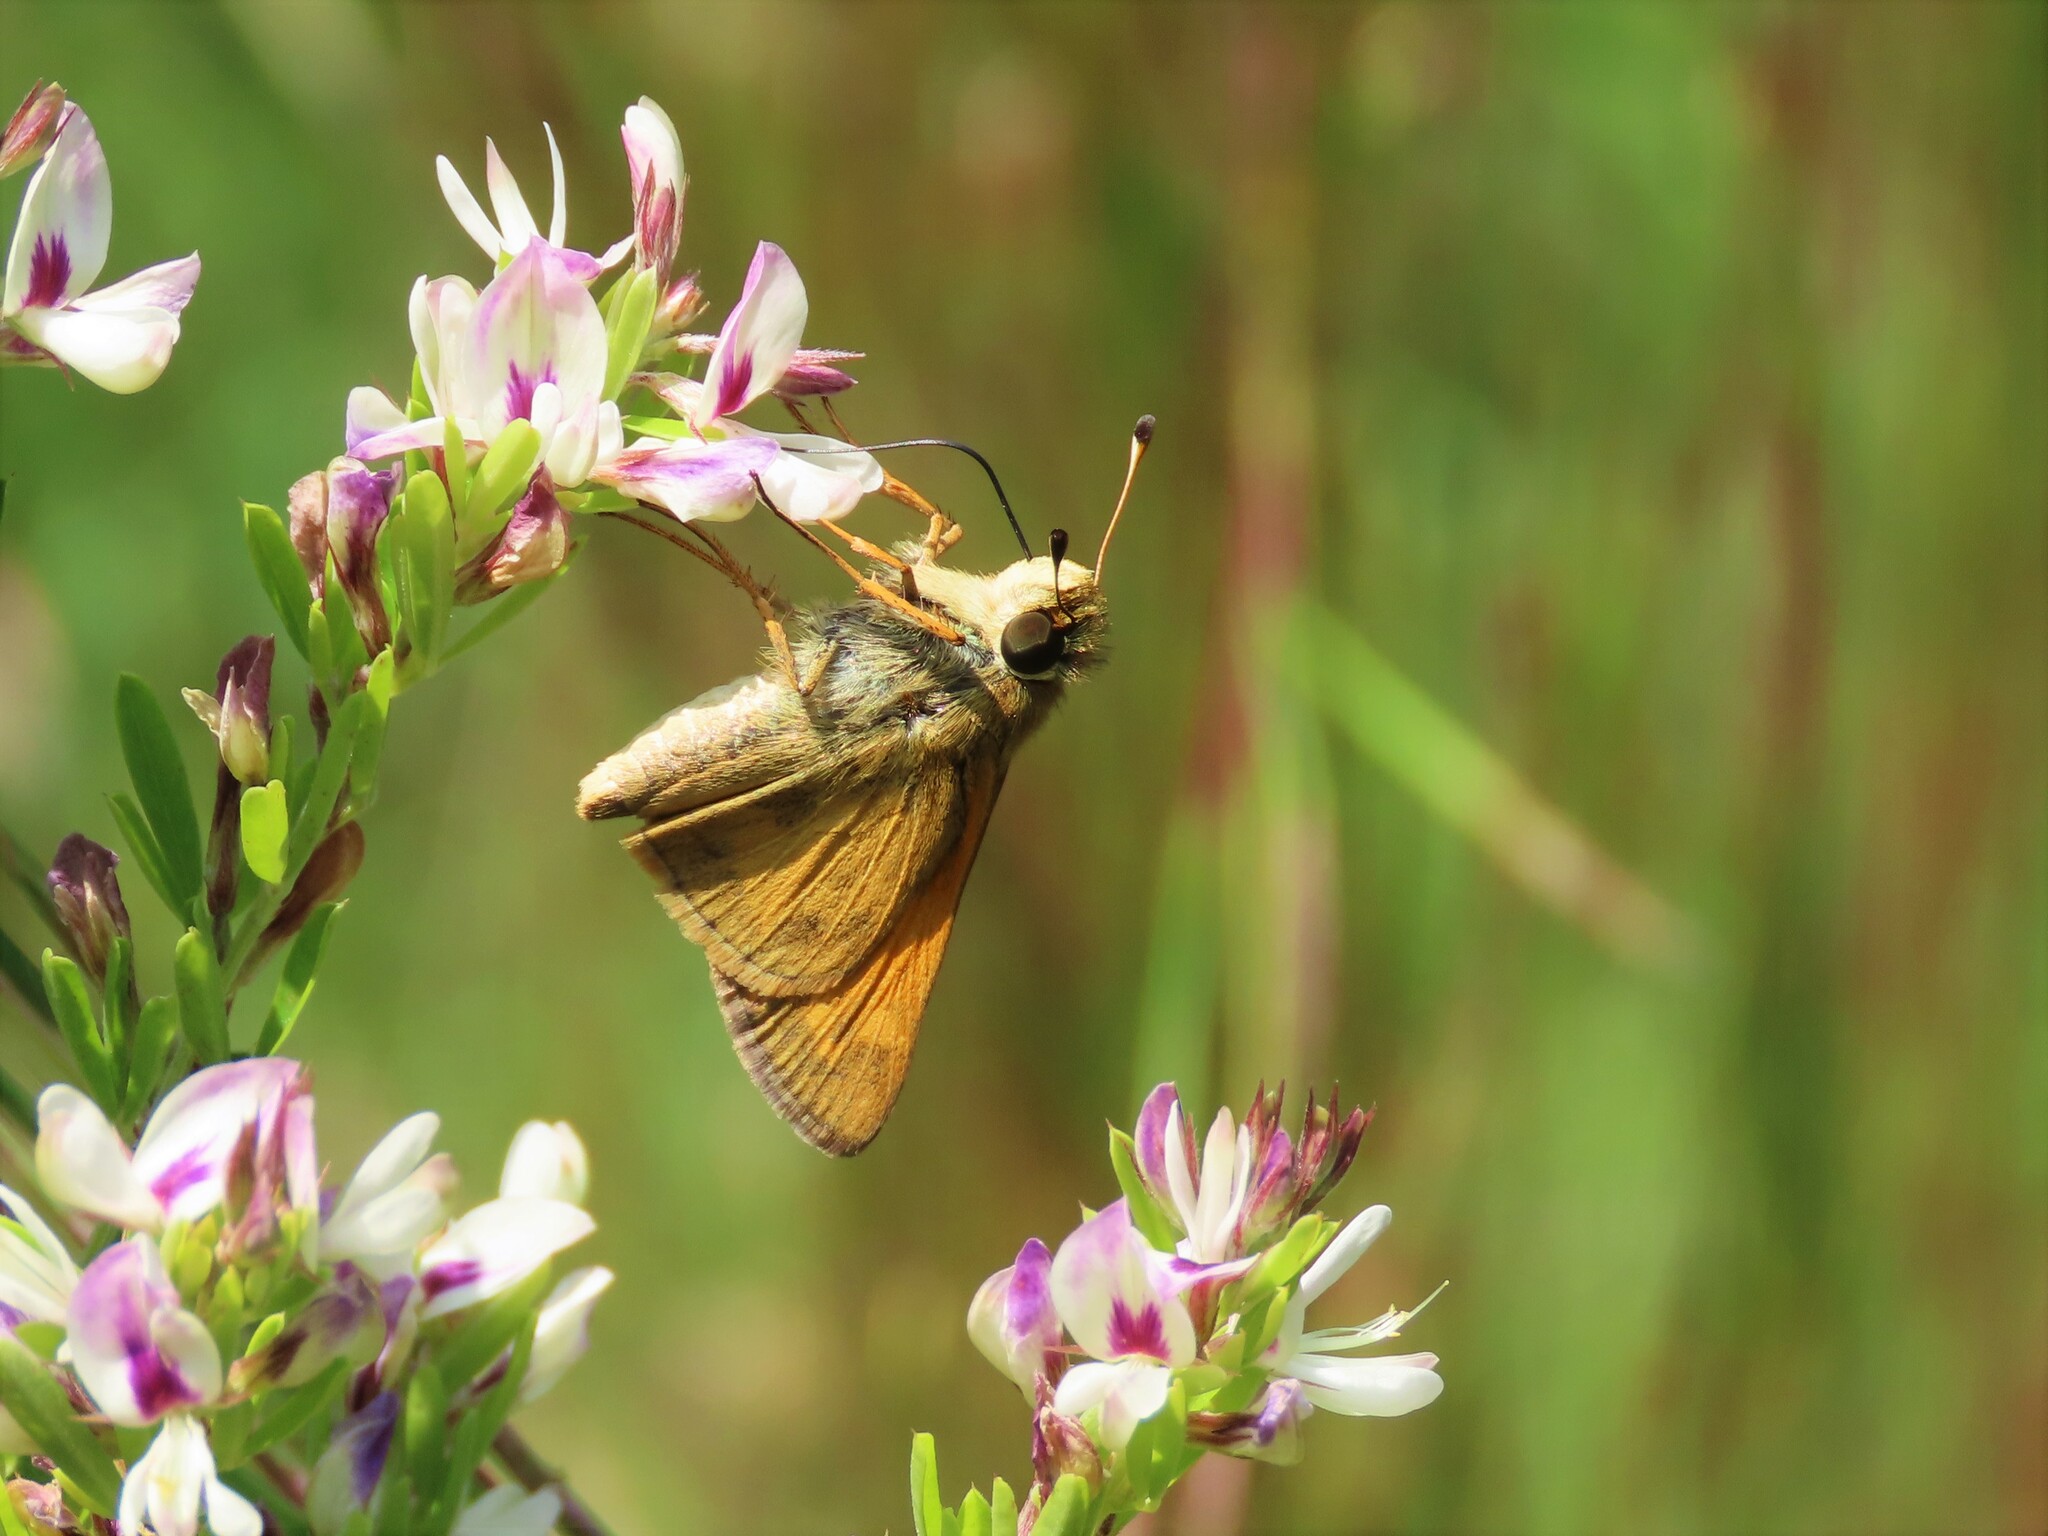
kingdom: Animalia
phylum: Arthropoda
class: Insecta
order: Lepidoptera
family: Hesperiidae
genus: Atalopedes
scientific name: Atalopedes
